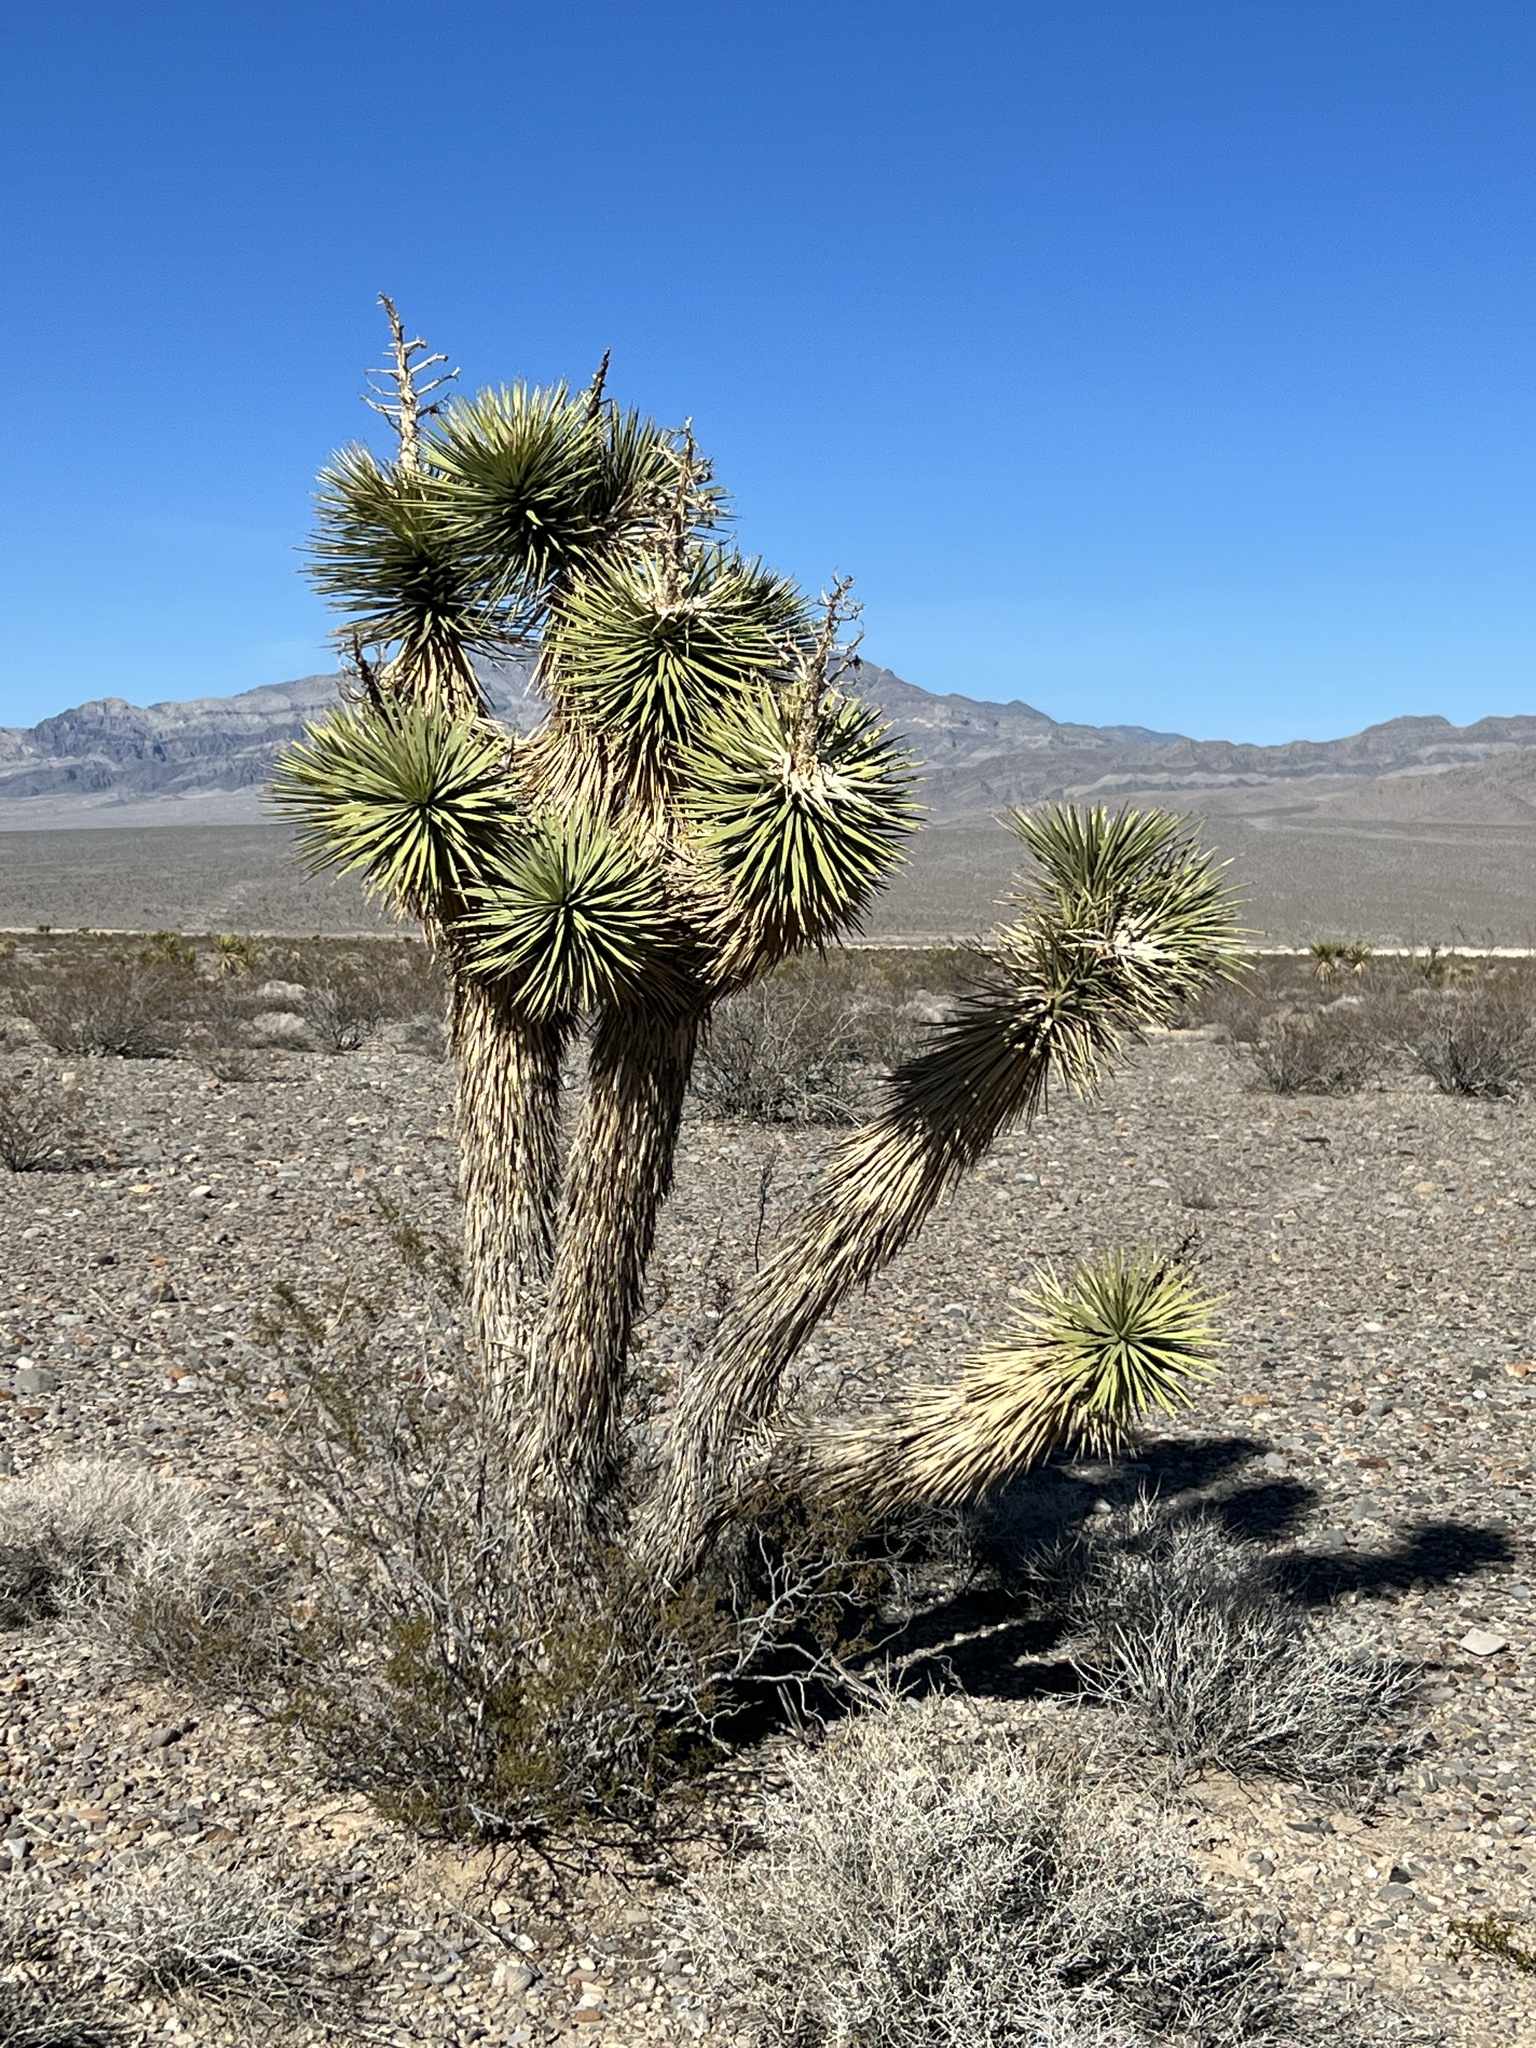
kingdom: Plantae
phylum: Tracheophyta
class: Liliopsida
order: Asparagales
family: Asparagaceae
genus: Yucca
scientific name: Yucca brevifolia
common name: Joshua tree
